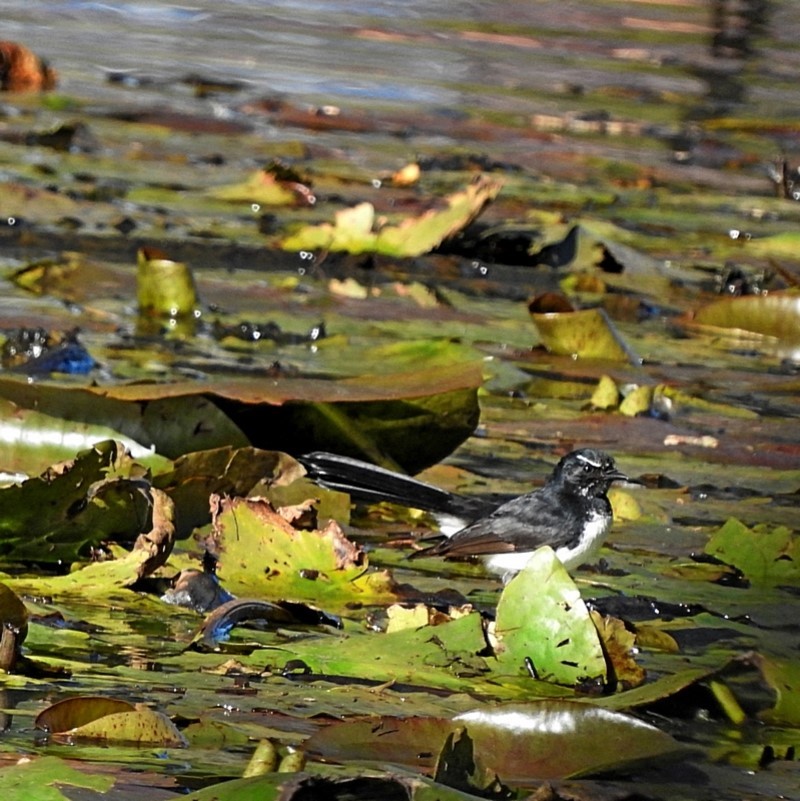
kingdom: Animalia
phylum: Chordata
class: Aves
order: Passeriformes
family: Rhipiduridae
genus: Rhipidura
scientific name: Rhipidura leucophrys
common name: Willie wagtail
